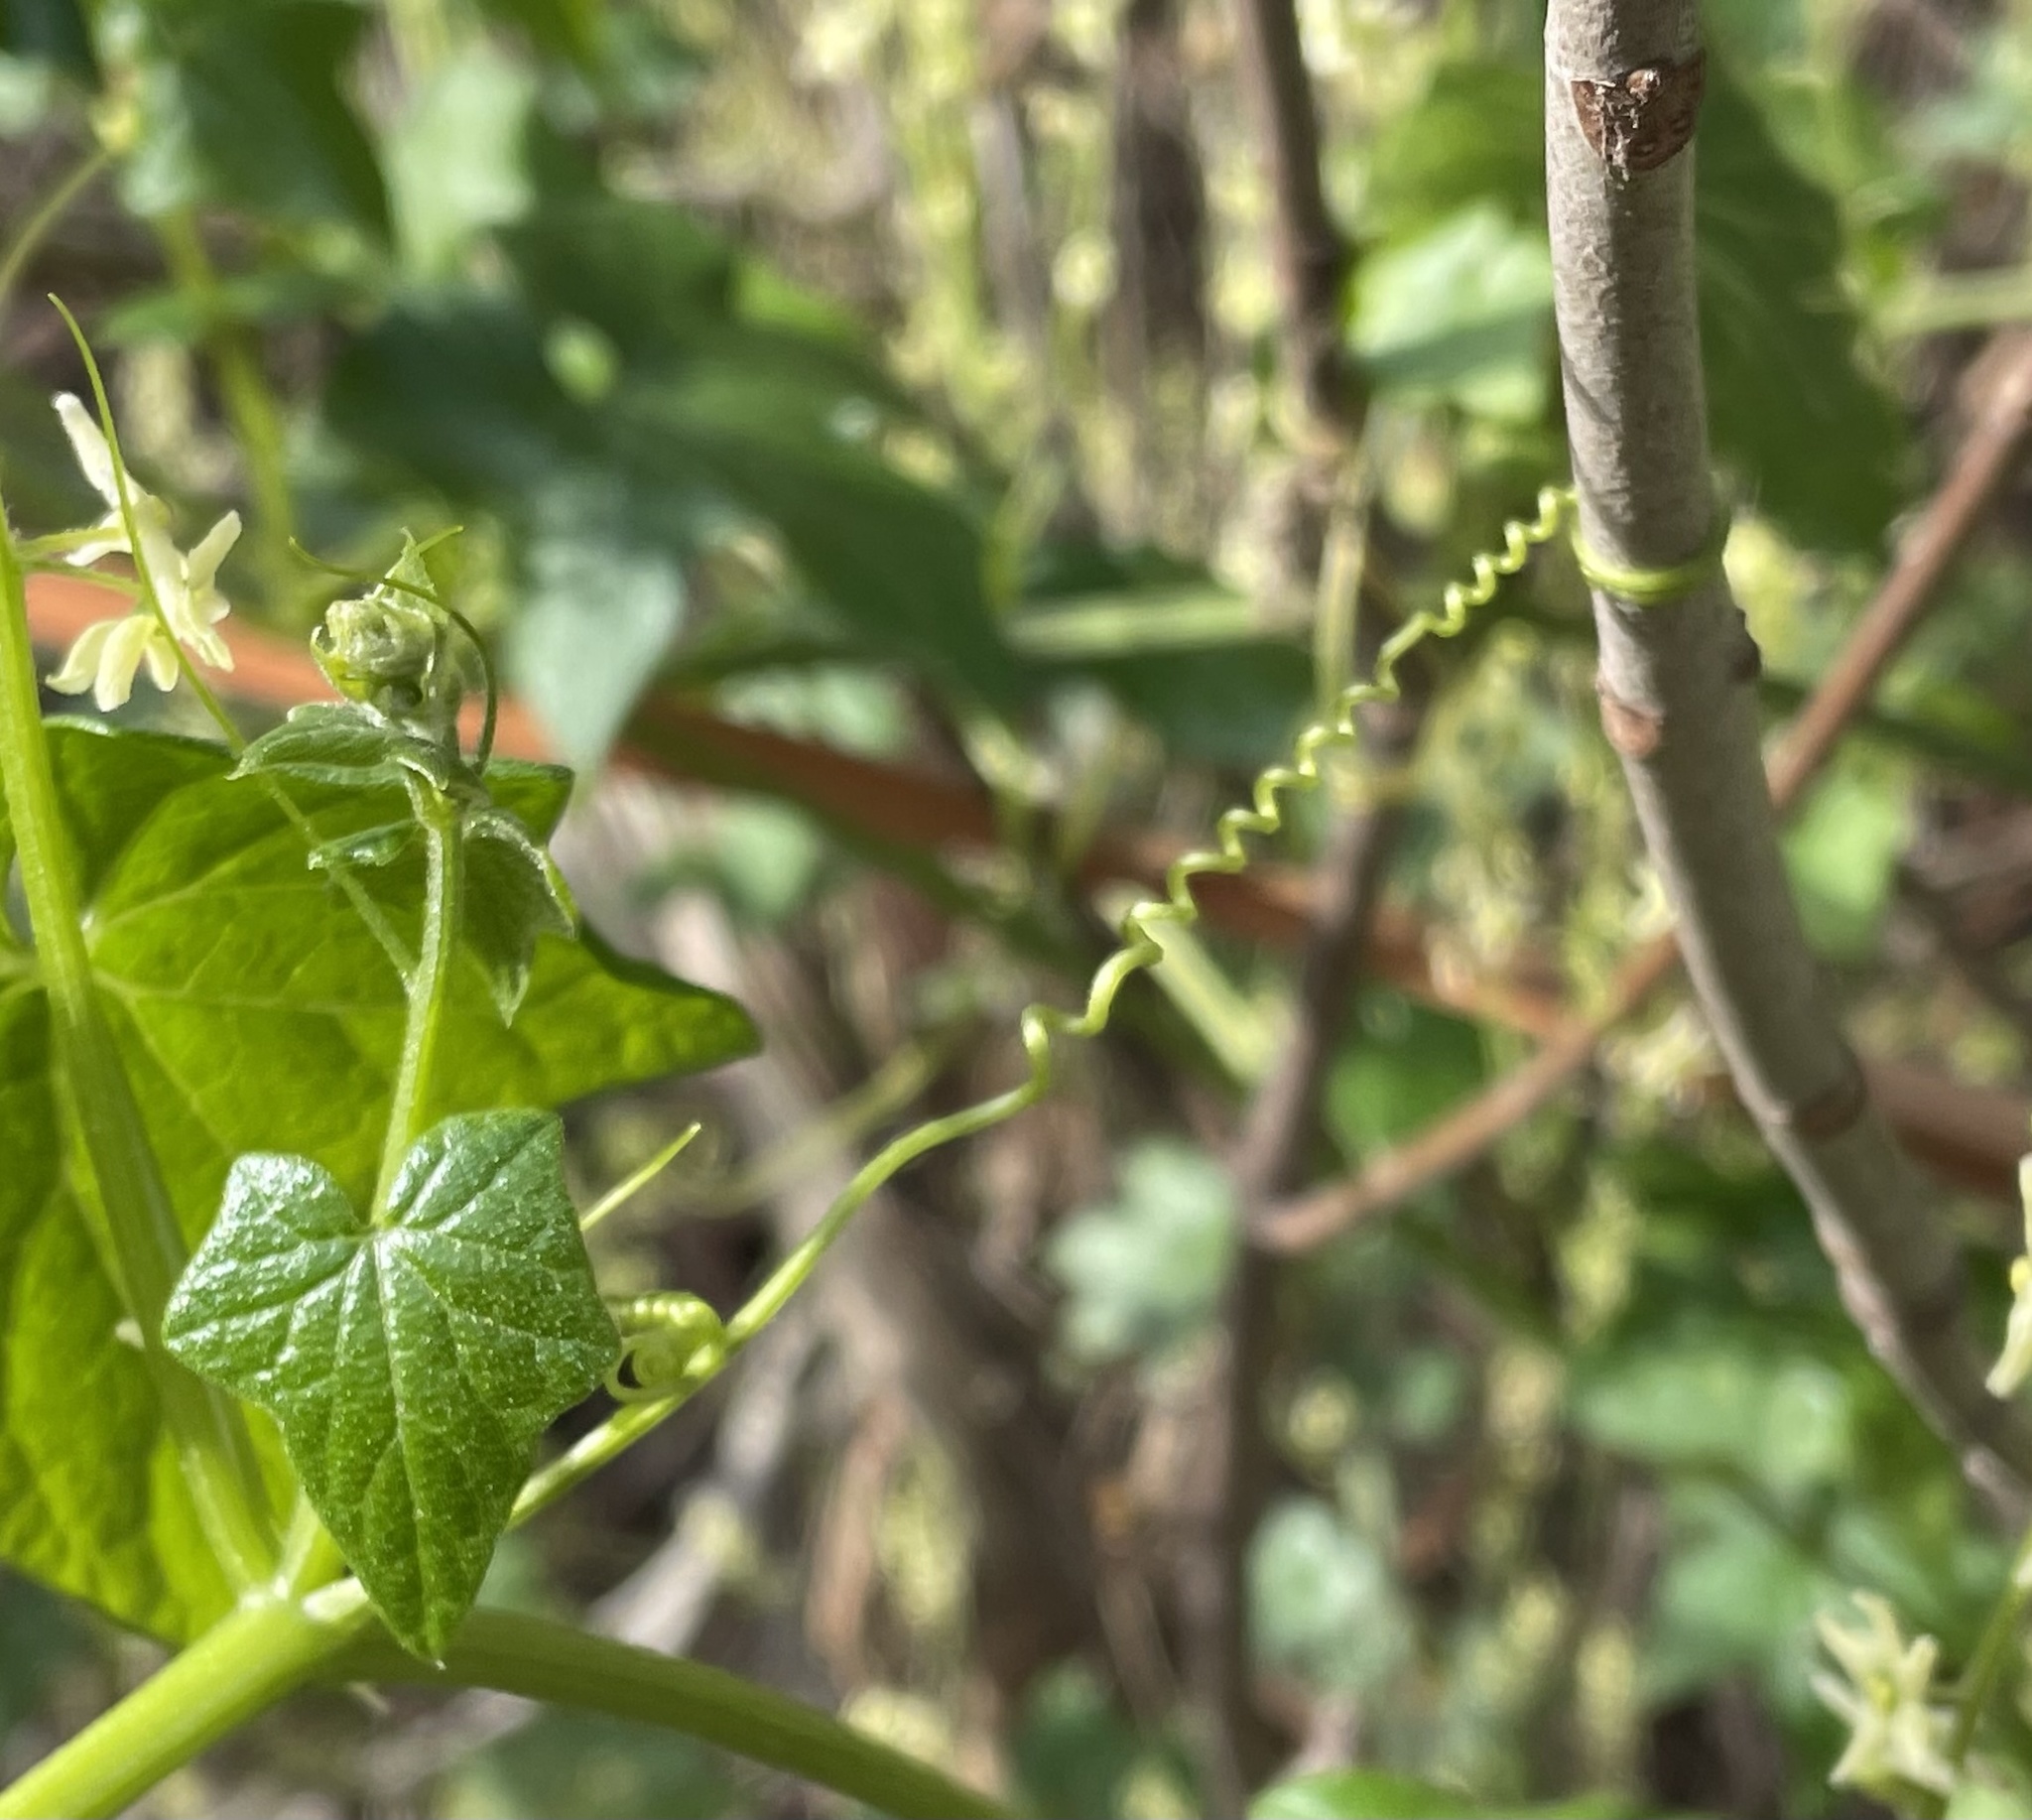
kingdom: Plantae
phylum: Tracheophyta
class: Magnoliopsida
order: Cucurbitales
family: Cucurbitaceae
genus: Marah
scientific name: Marah fabacea
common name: California manroot
